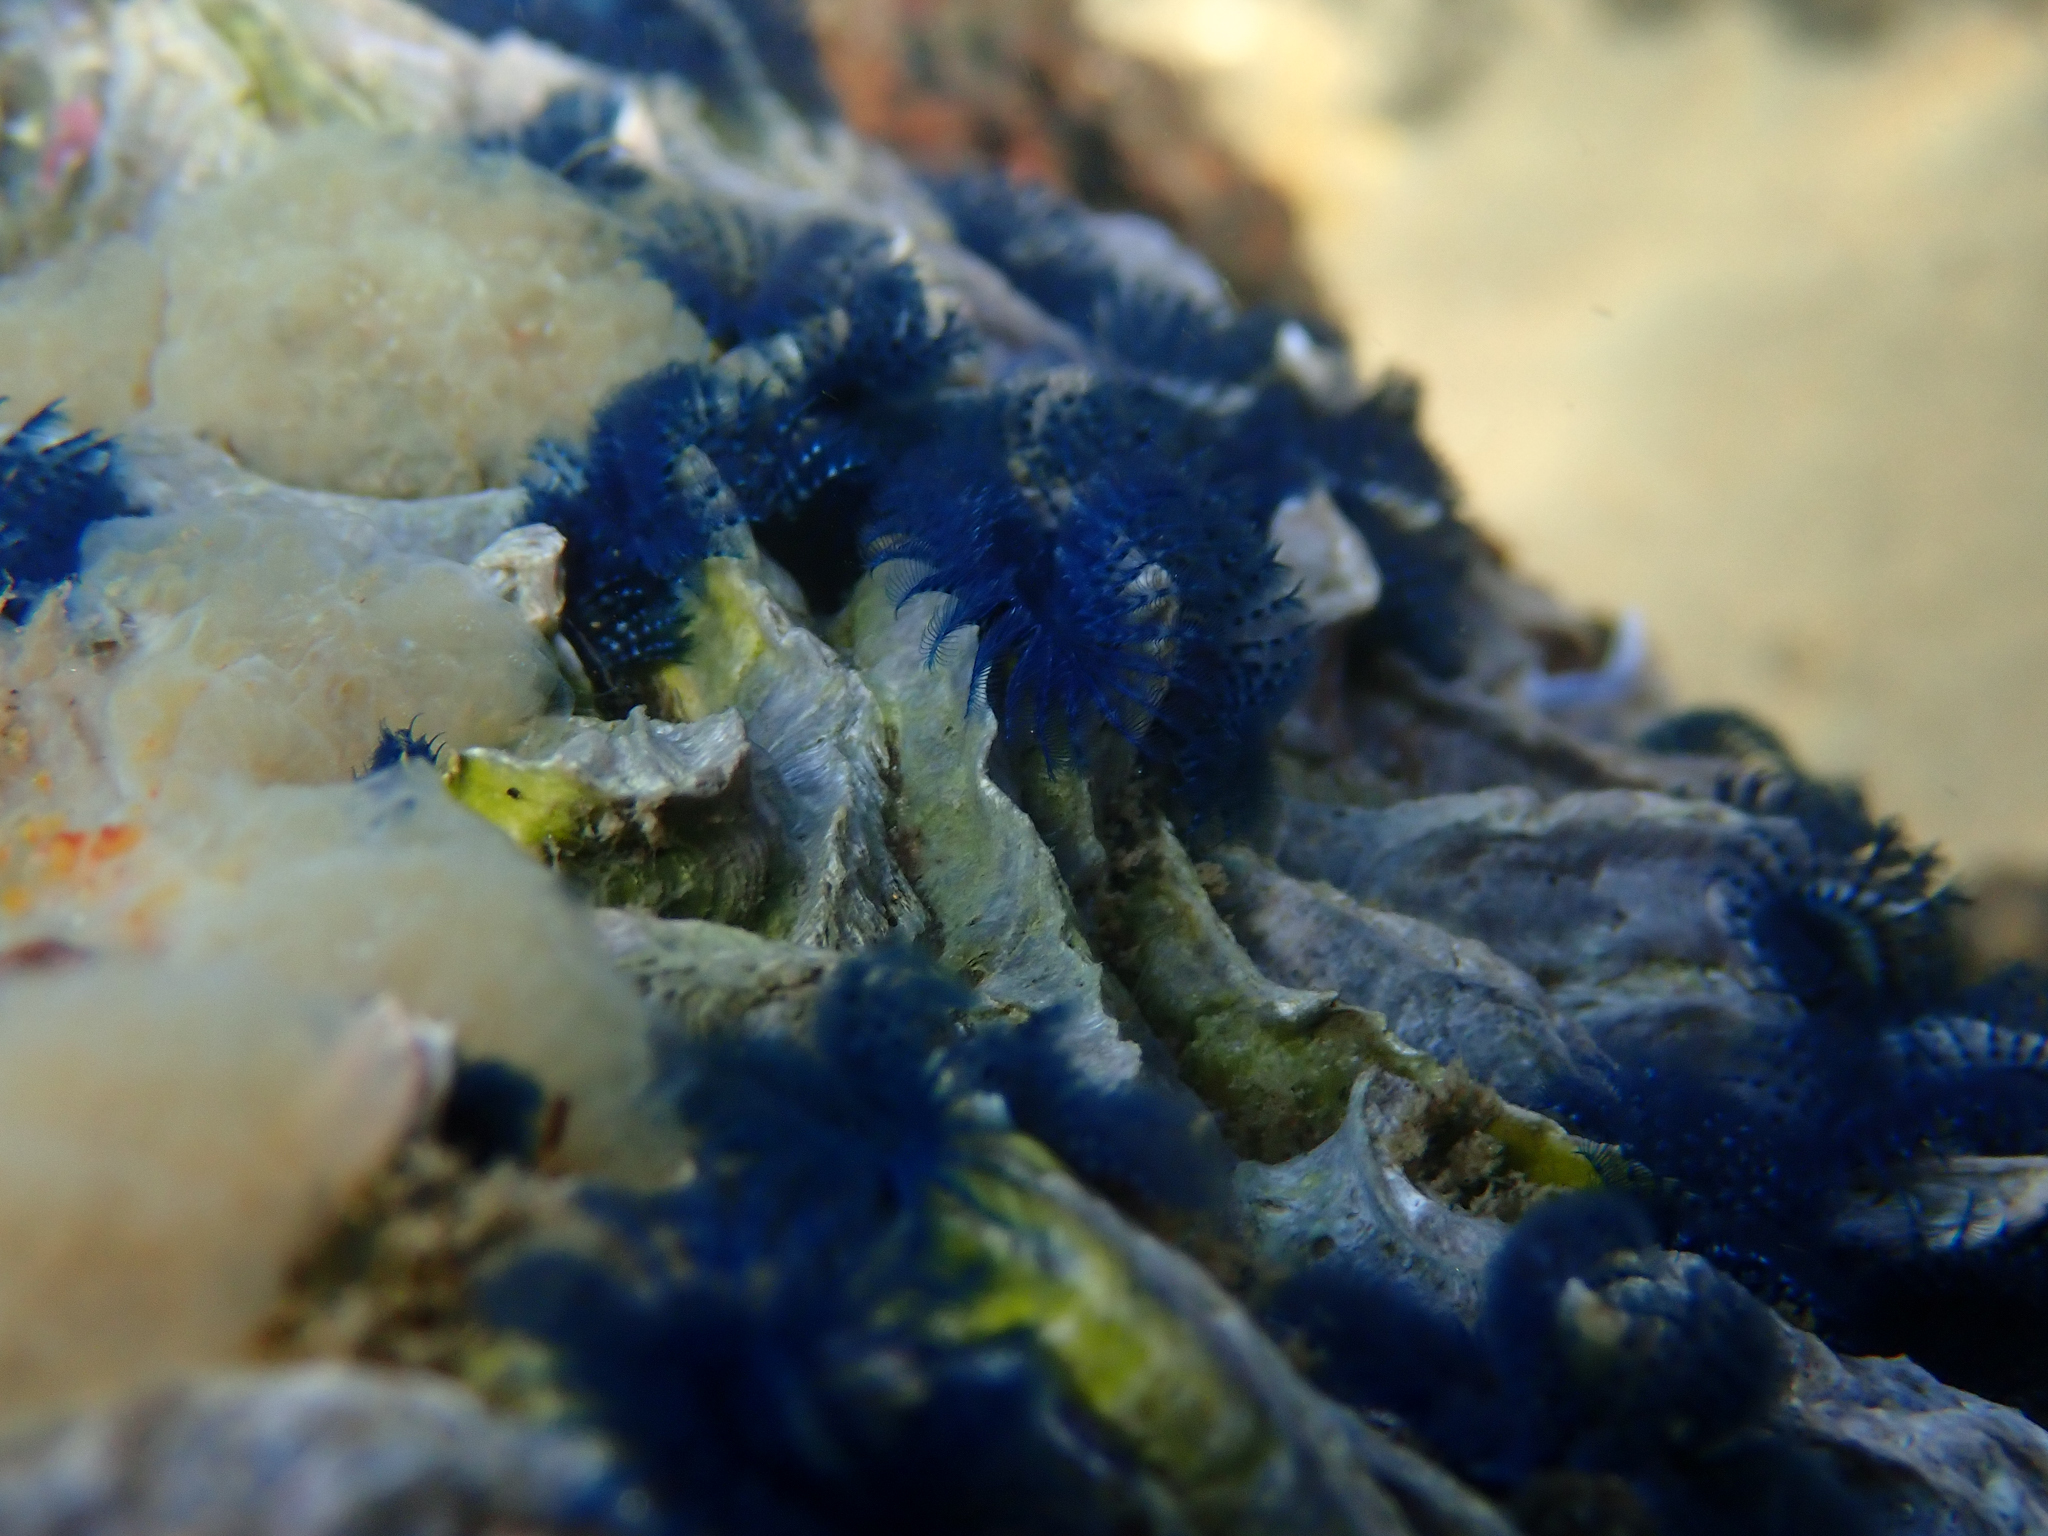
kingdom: Animalia
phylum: Annelida
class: Polychaeta
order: Sabellida
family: Serpulidae
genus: Spirobranchus
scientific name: Spirobranchus cariniferus
